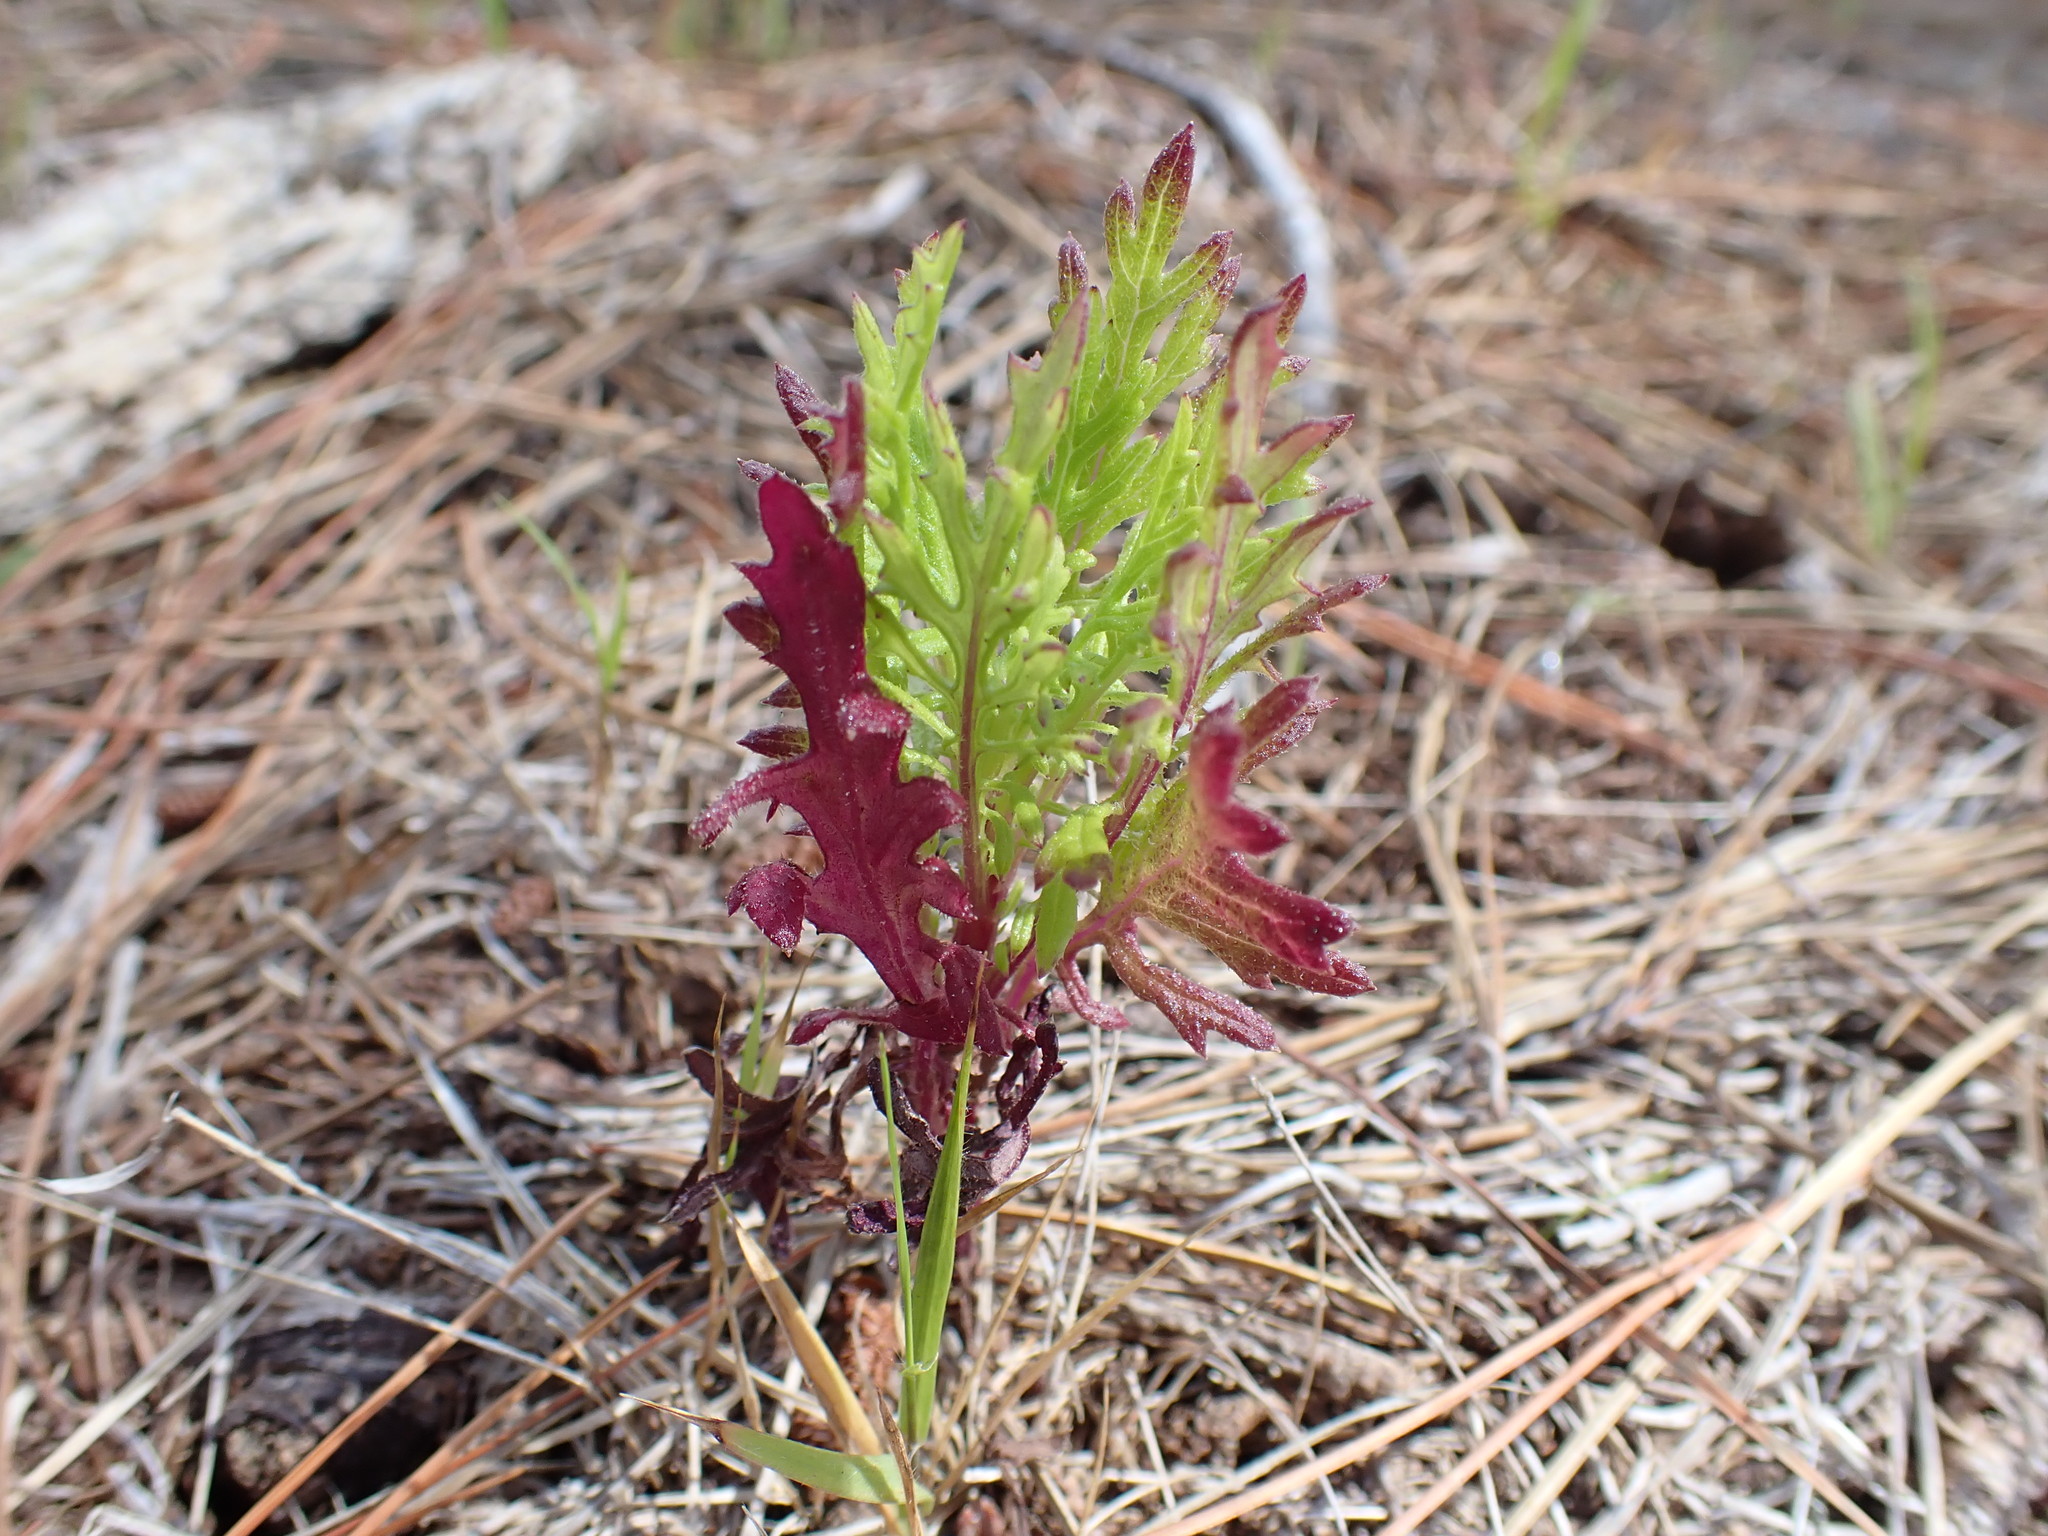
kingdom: Plantae
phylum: Tracheophyta
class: Magnoliopsida
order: Asterales
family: Asteraceae
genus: Senecio
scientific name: Senecio bipinnatisectus
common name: Australian fireweed
